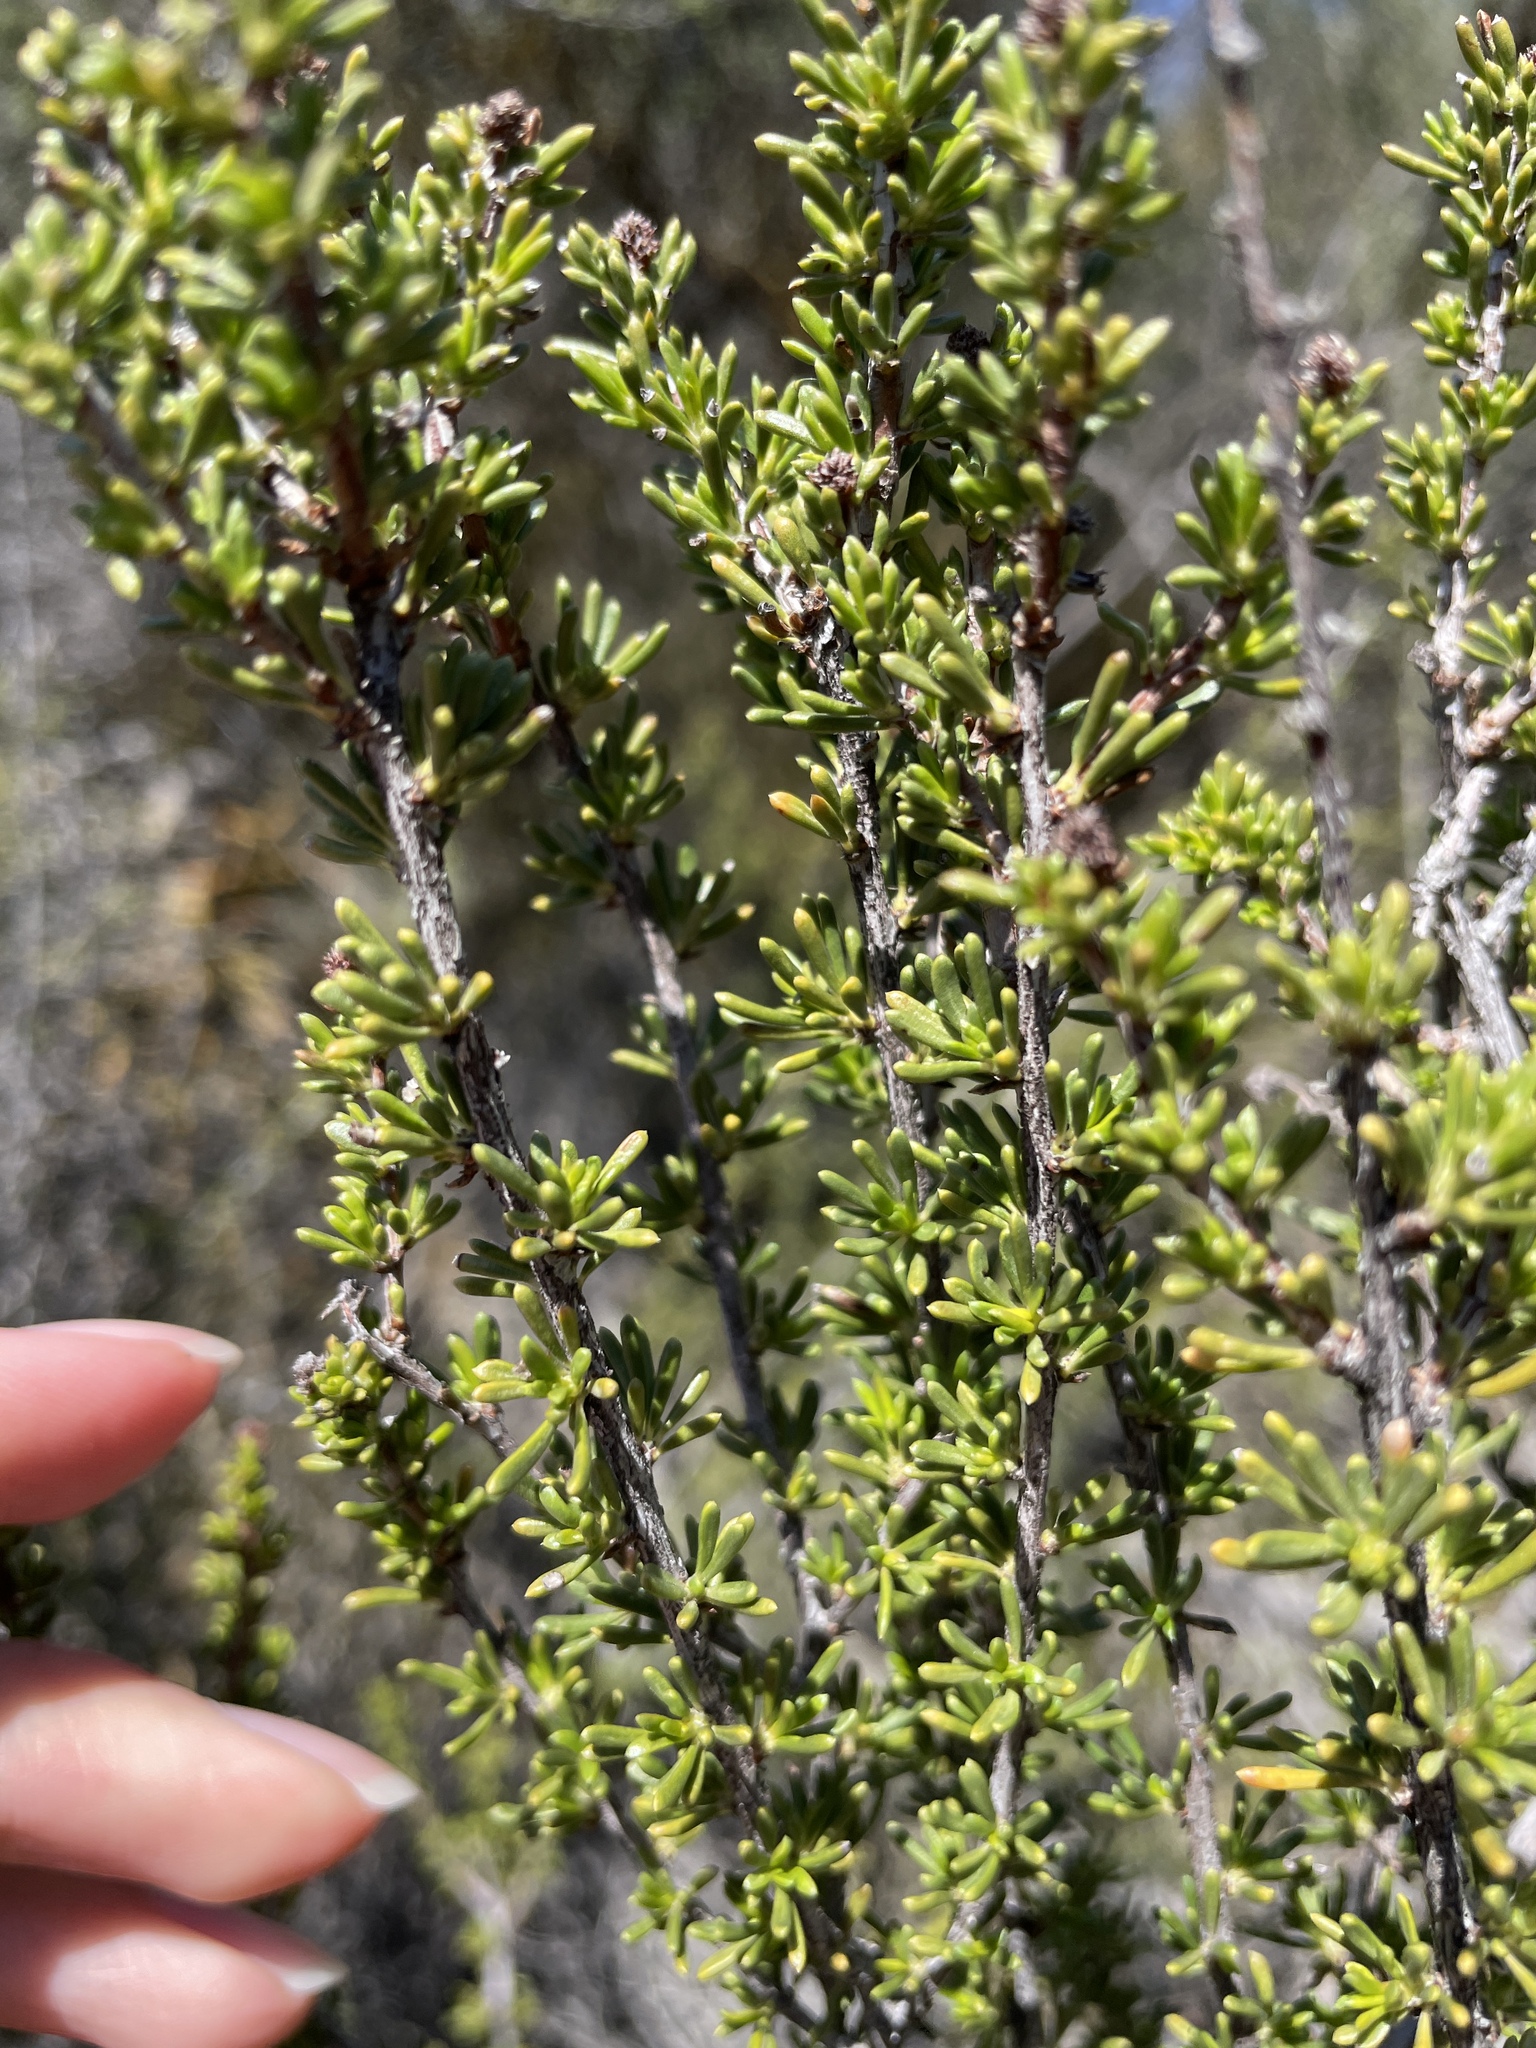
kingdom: Plantae
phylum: Tracheophyta
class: Magnoliopsida
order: Rosales
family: Rosaceae
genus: Adenostoma
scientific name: Adenostoma fasciculatum
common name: Chamise
